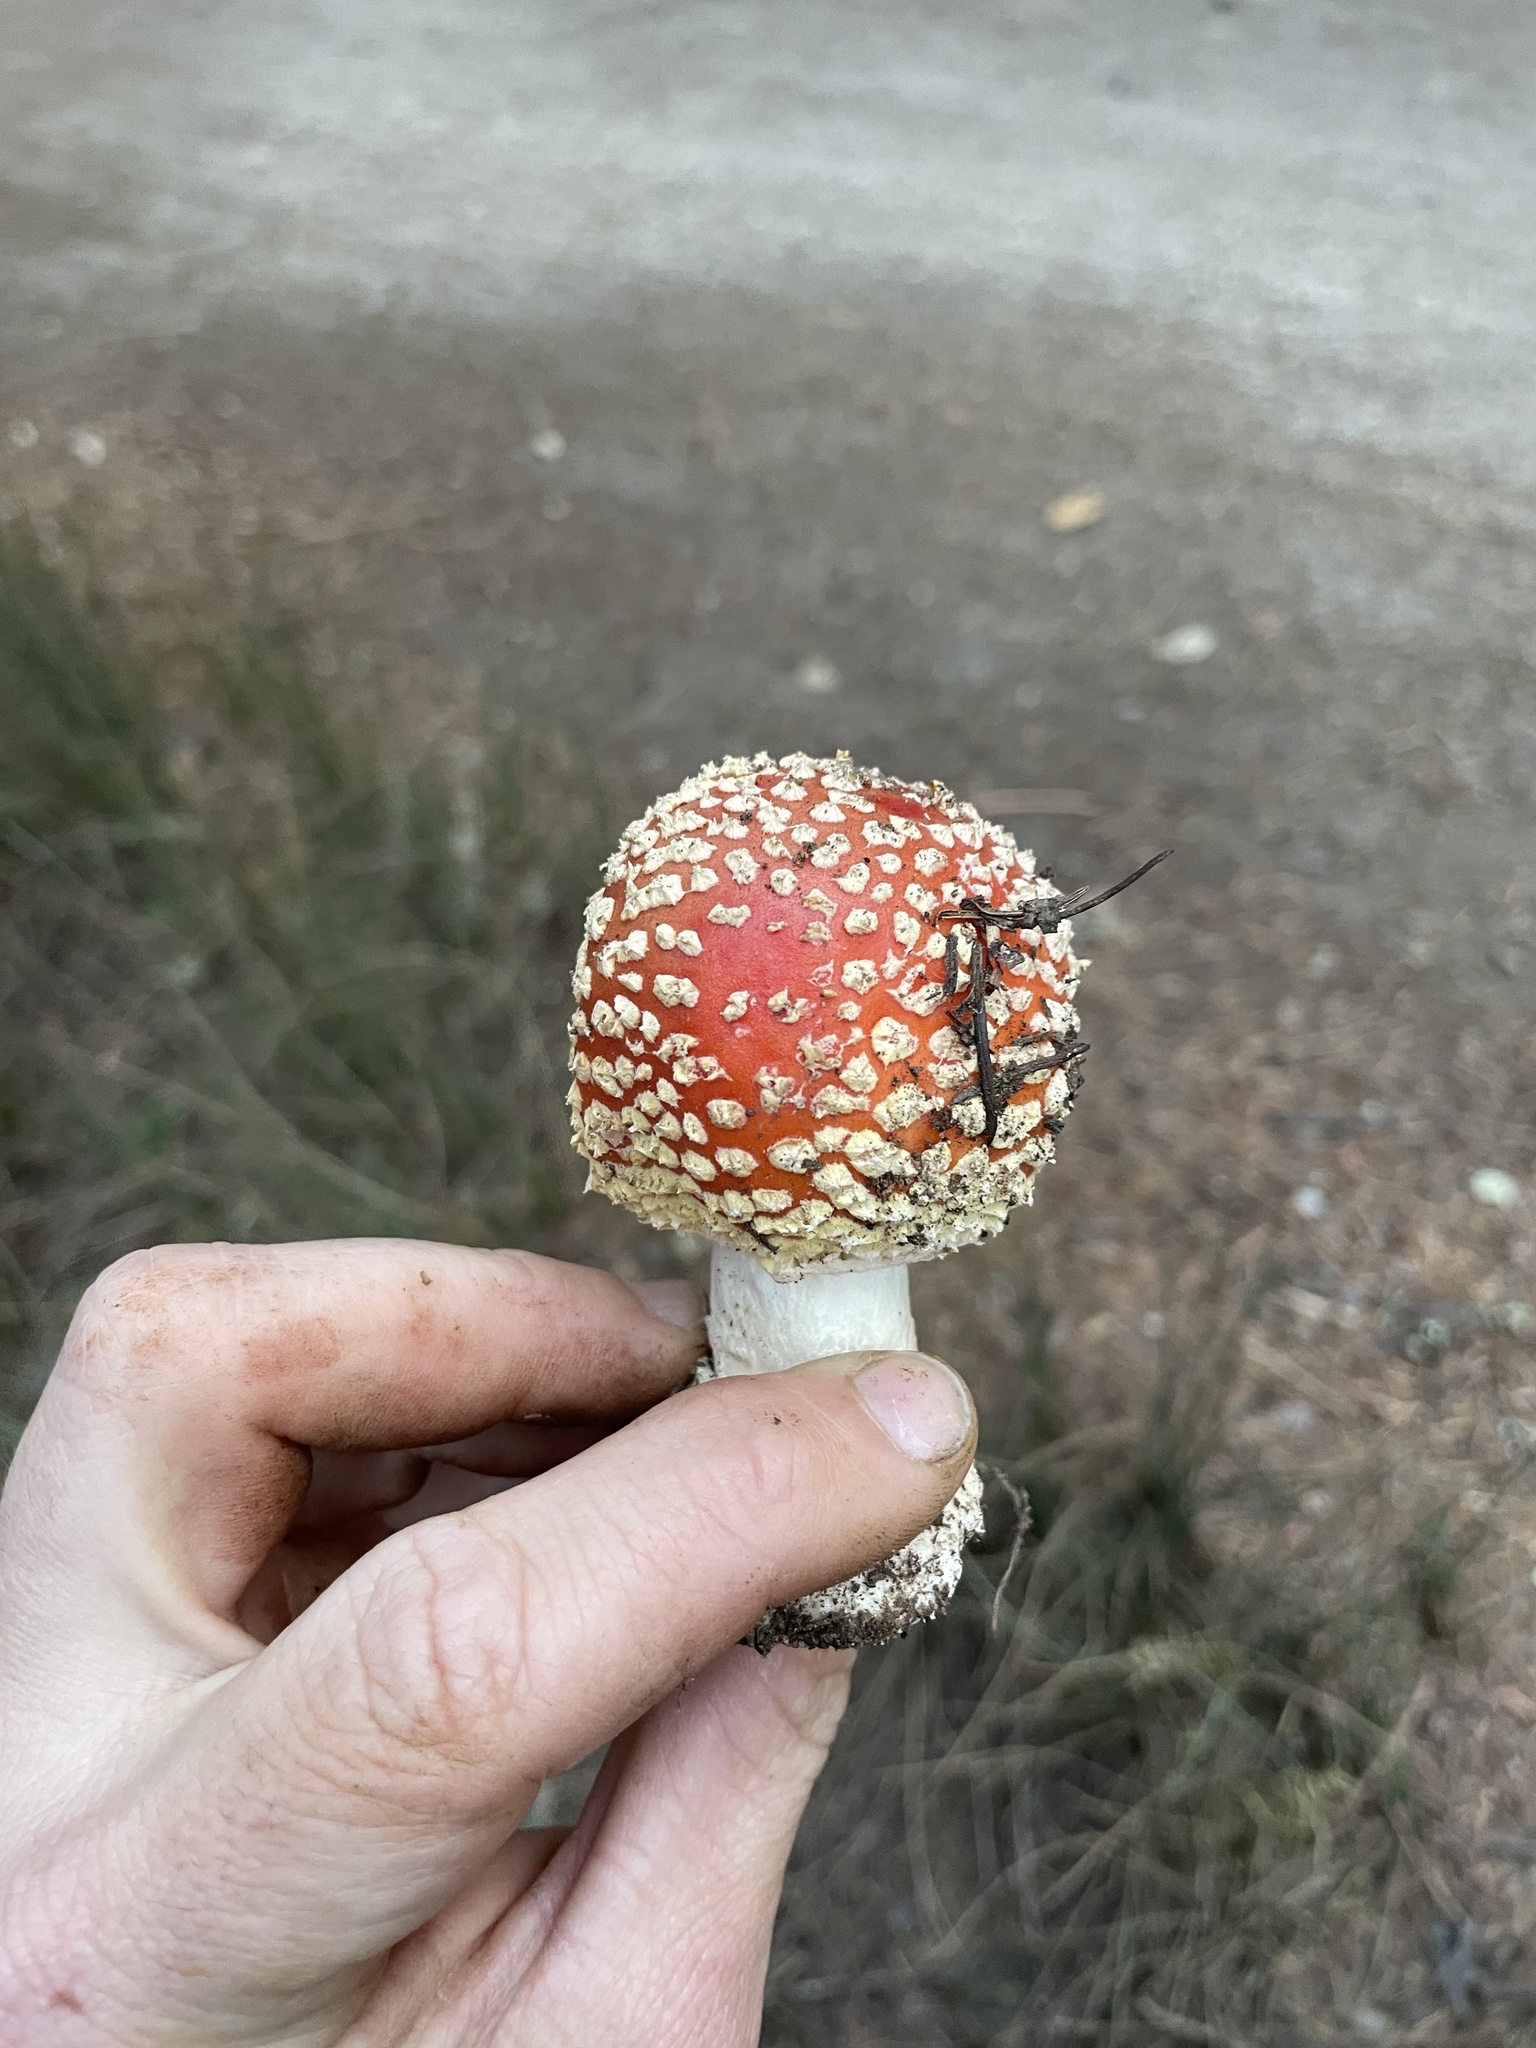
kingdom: Fungi
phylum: Basidiomycota
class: Agaricomycetes
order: Agaricales
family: Amanitaceae
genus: Amanita
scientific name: Amanita muscaria
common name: Fly agaric
